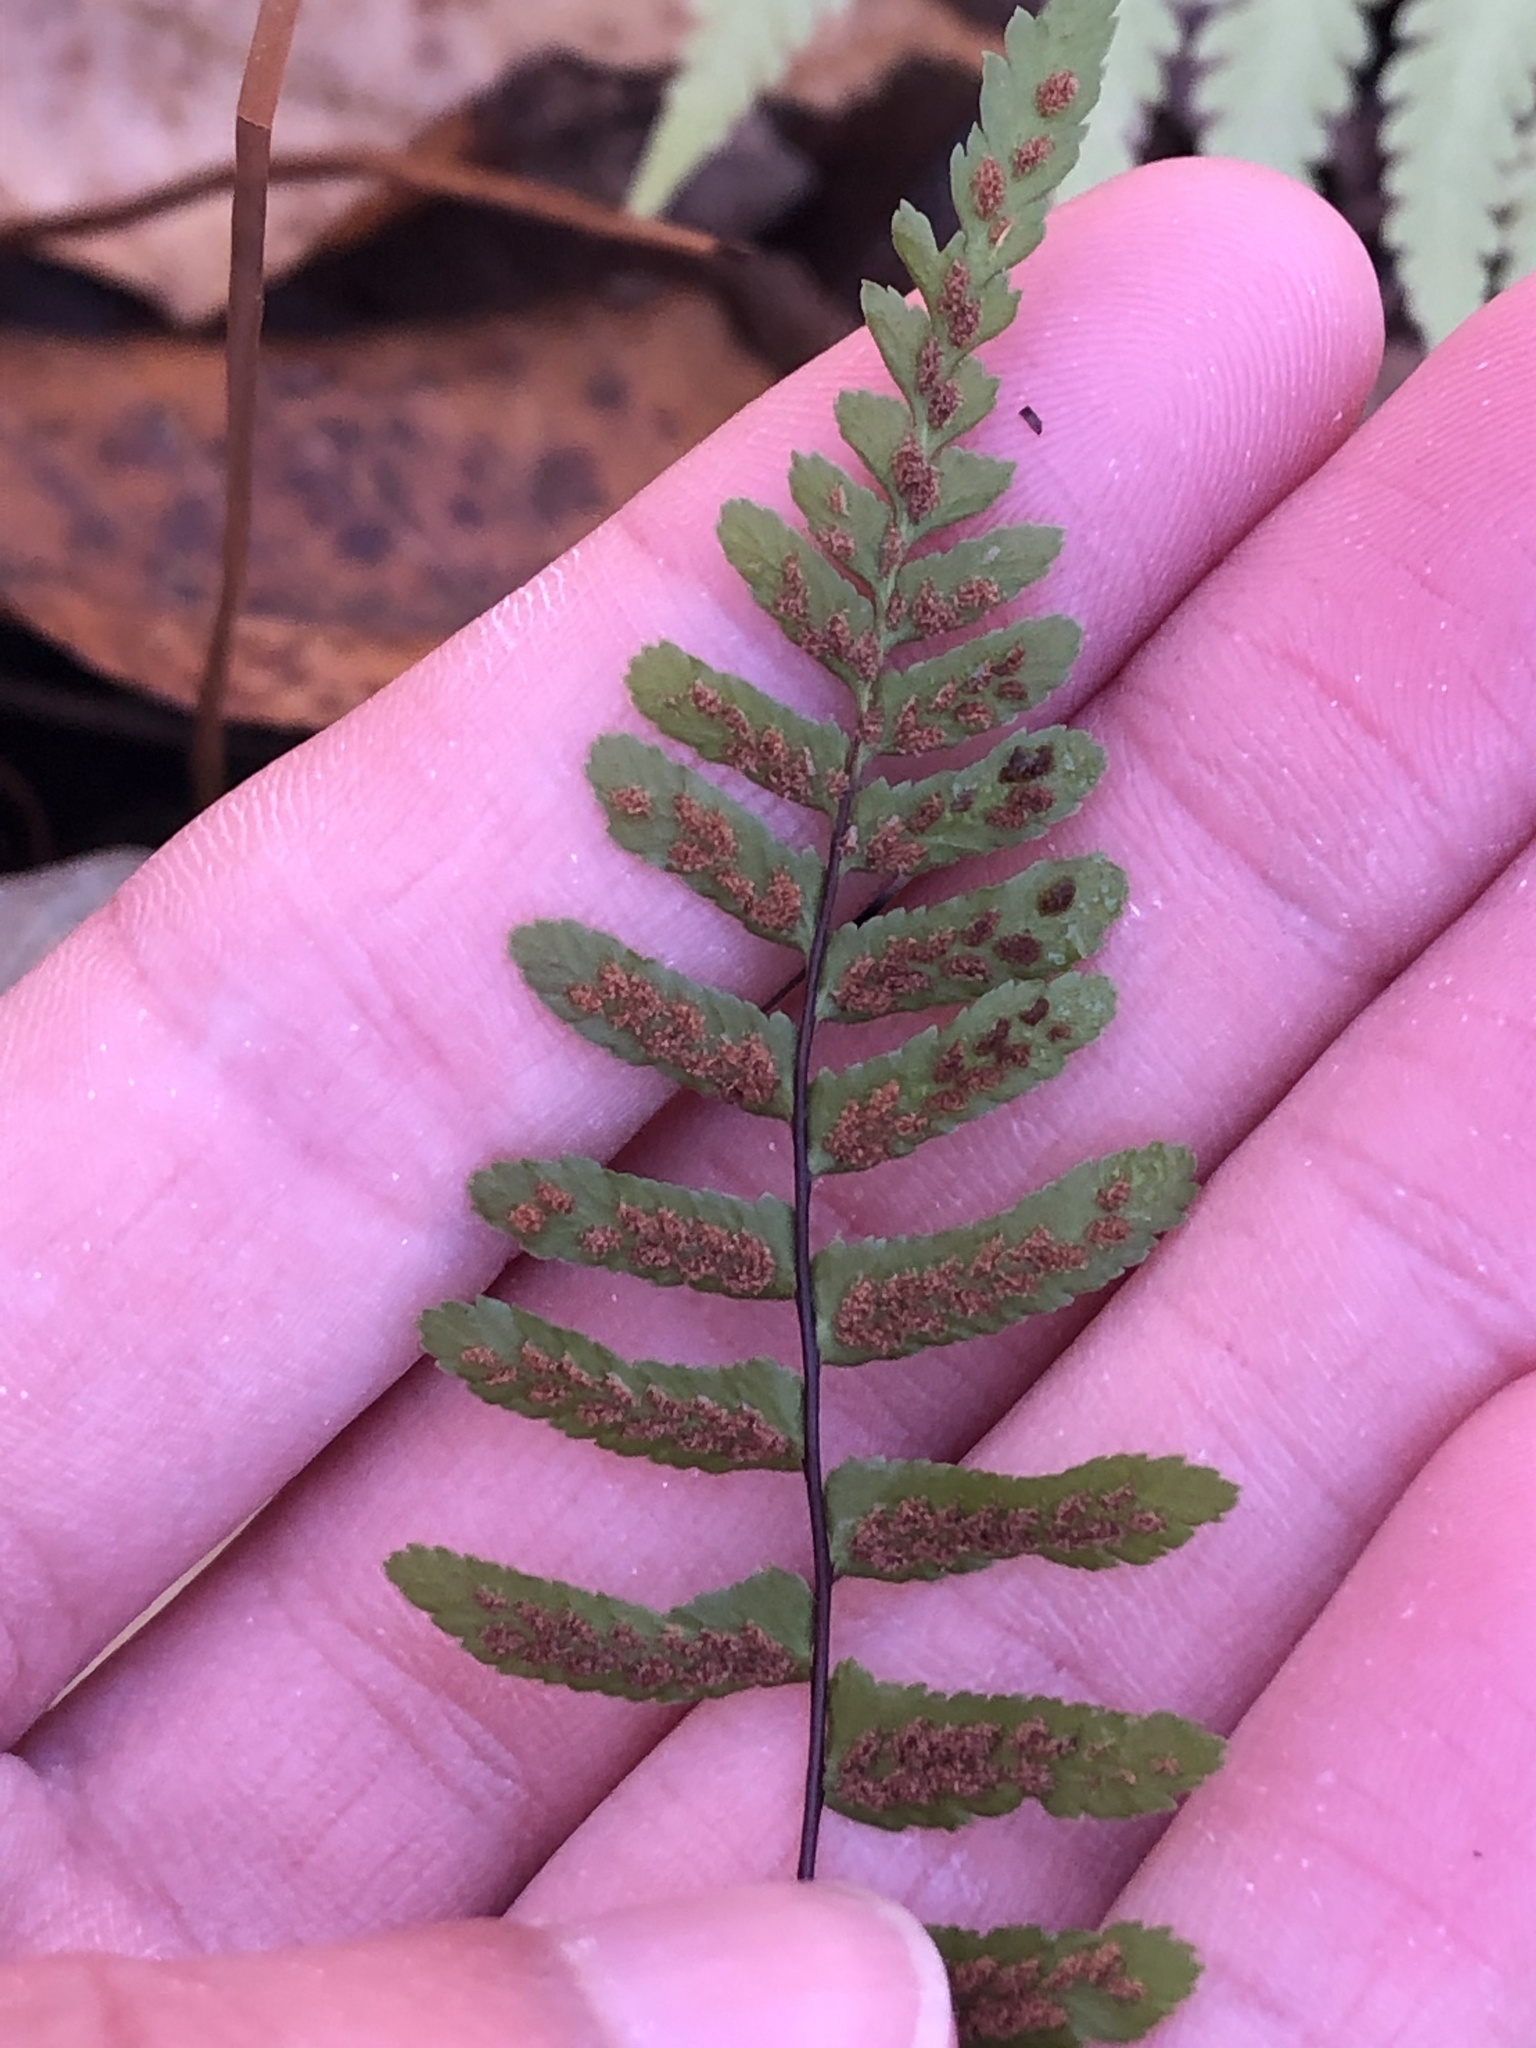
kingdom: Plantae
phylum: Tracheophyta
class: Polypodiopsida
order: Polypodiales
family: Aspleniaceae
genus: Asplenium
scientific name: Asplenium platyneuron
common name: Ebony spleenwort
